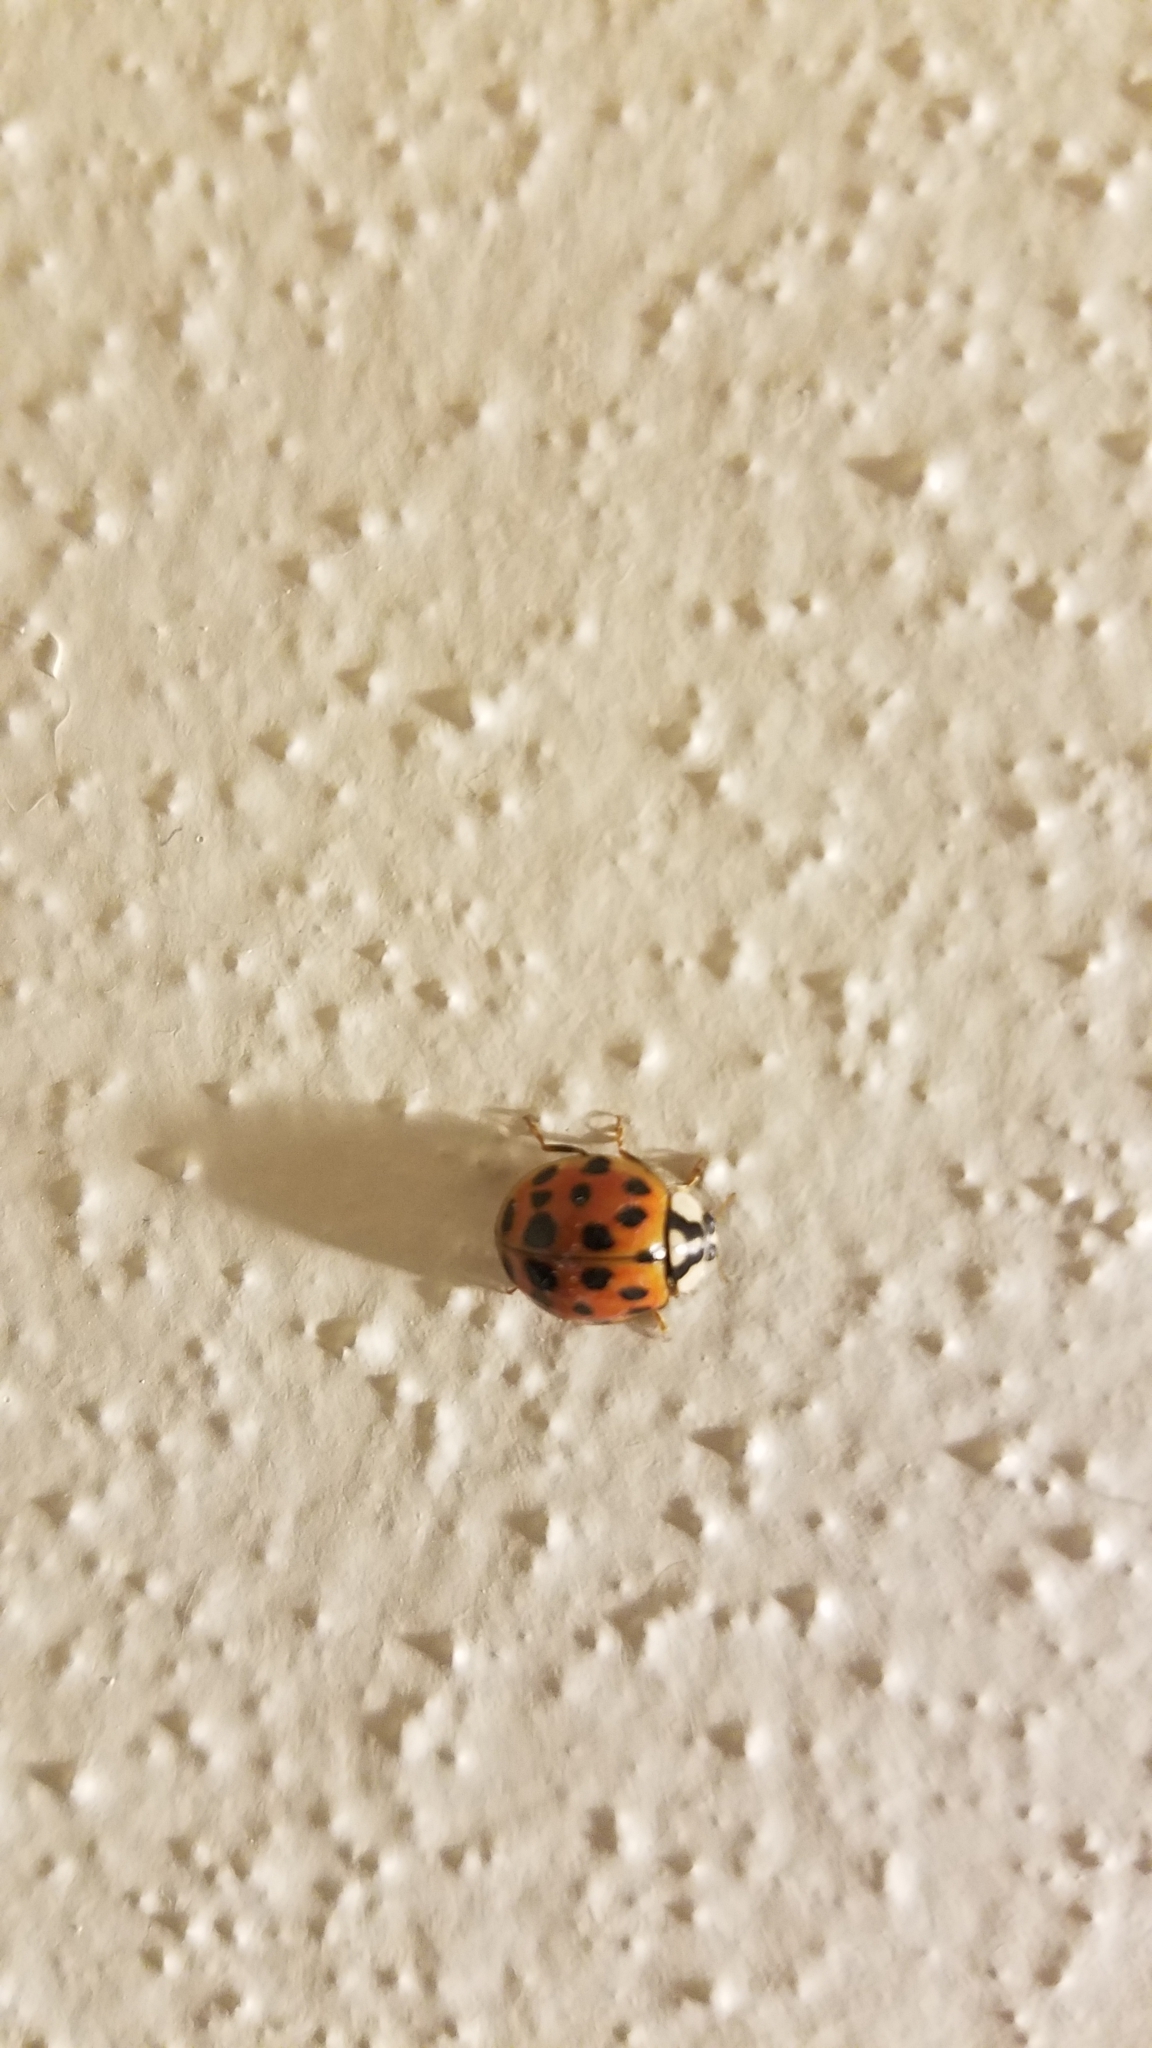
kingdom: Animalia
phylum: Arthropoda
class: Insecta
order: Coleoptera
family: Coccinellidae
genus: Harmonia
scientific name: Harmonia axyridis
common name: Harlequin ladybird
